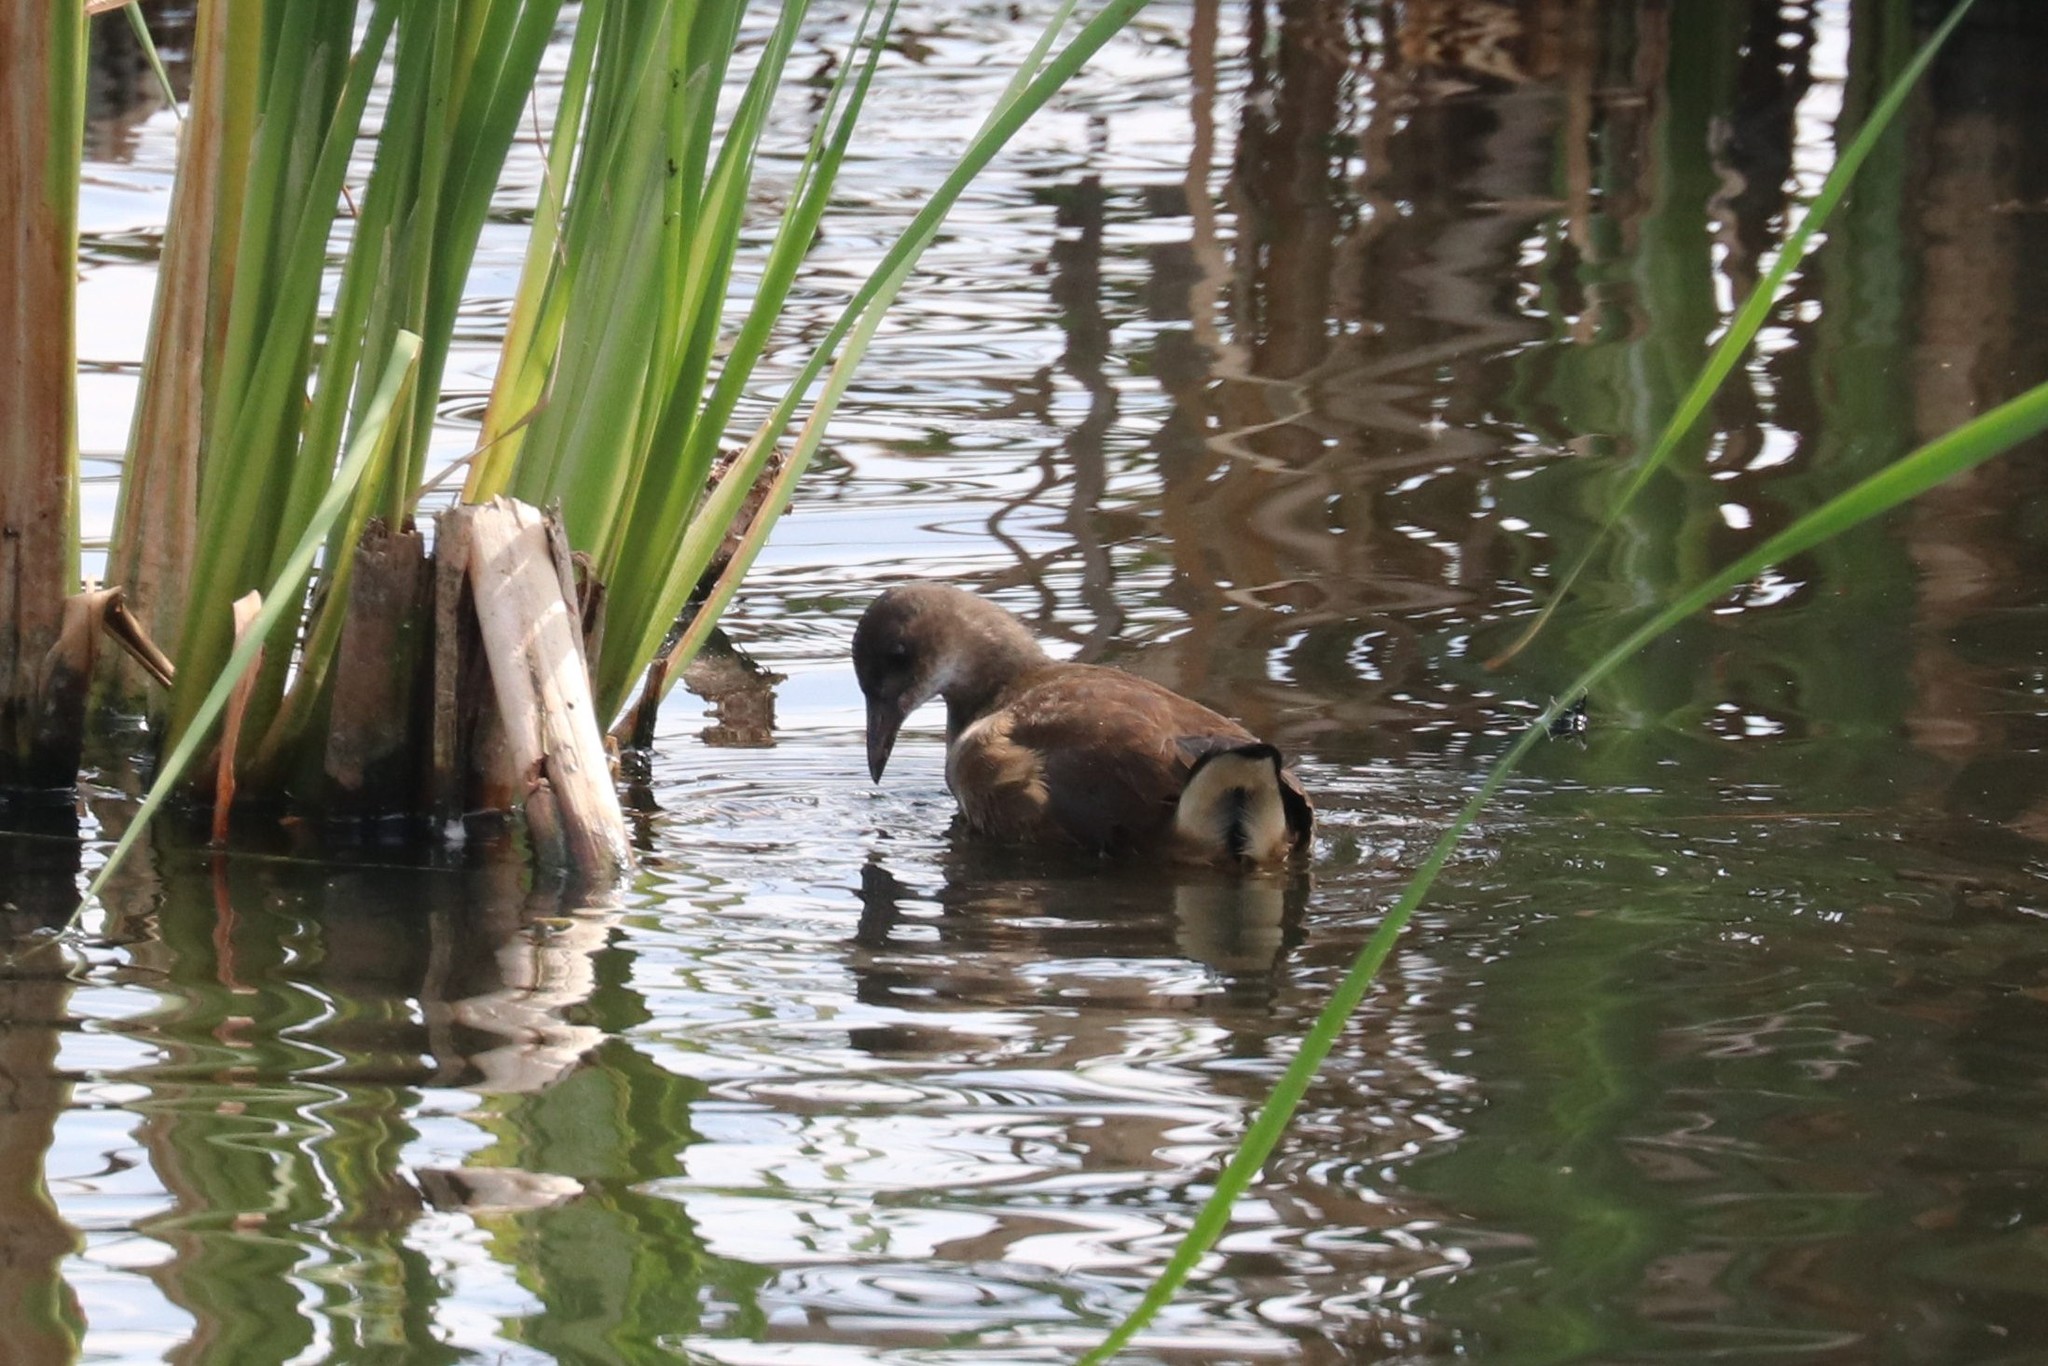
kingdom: Animalia
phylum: Chordata
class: Aves
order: Gruiformes
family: Rallidae
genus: Gallinula
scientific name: Gallinula chloropus
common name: Common moorhen
